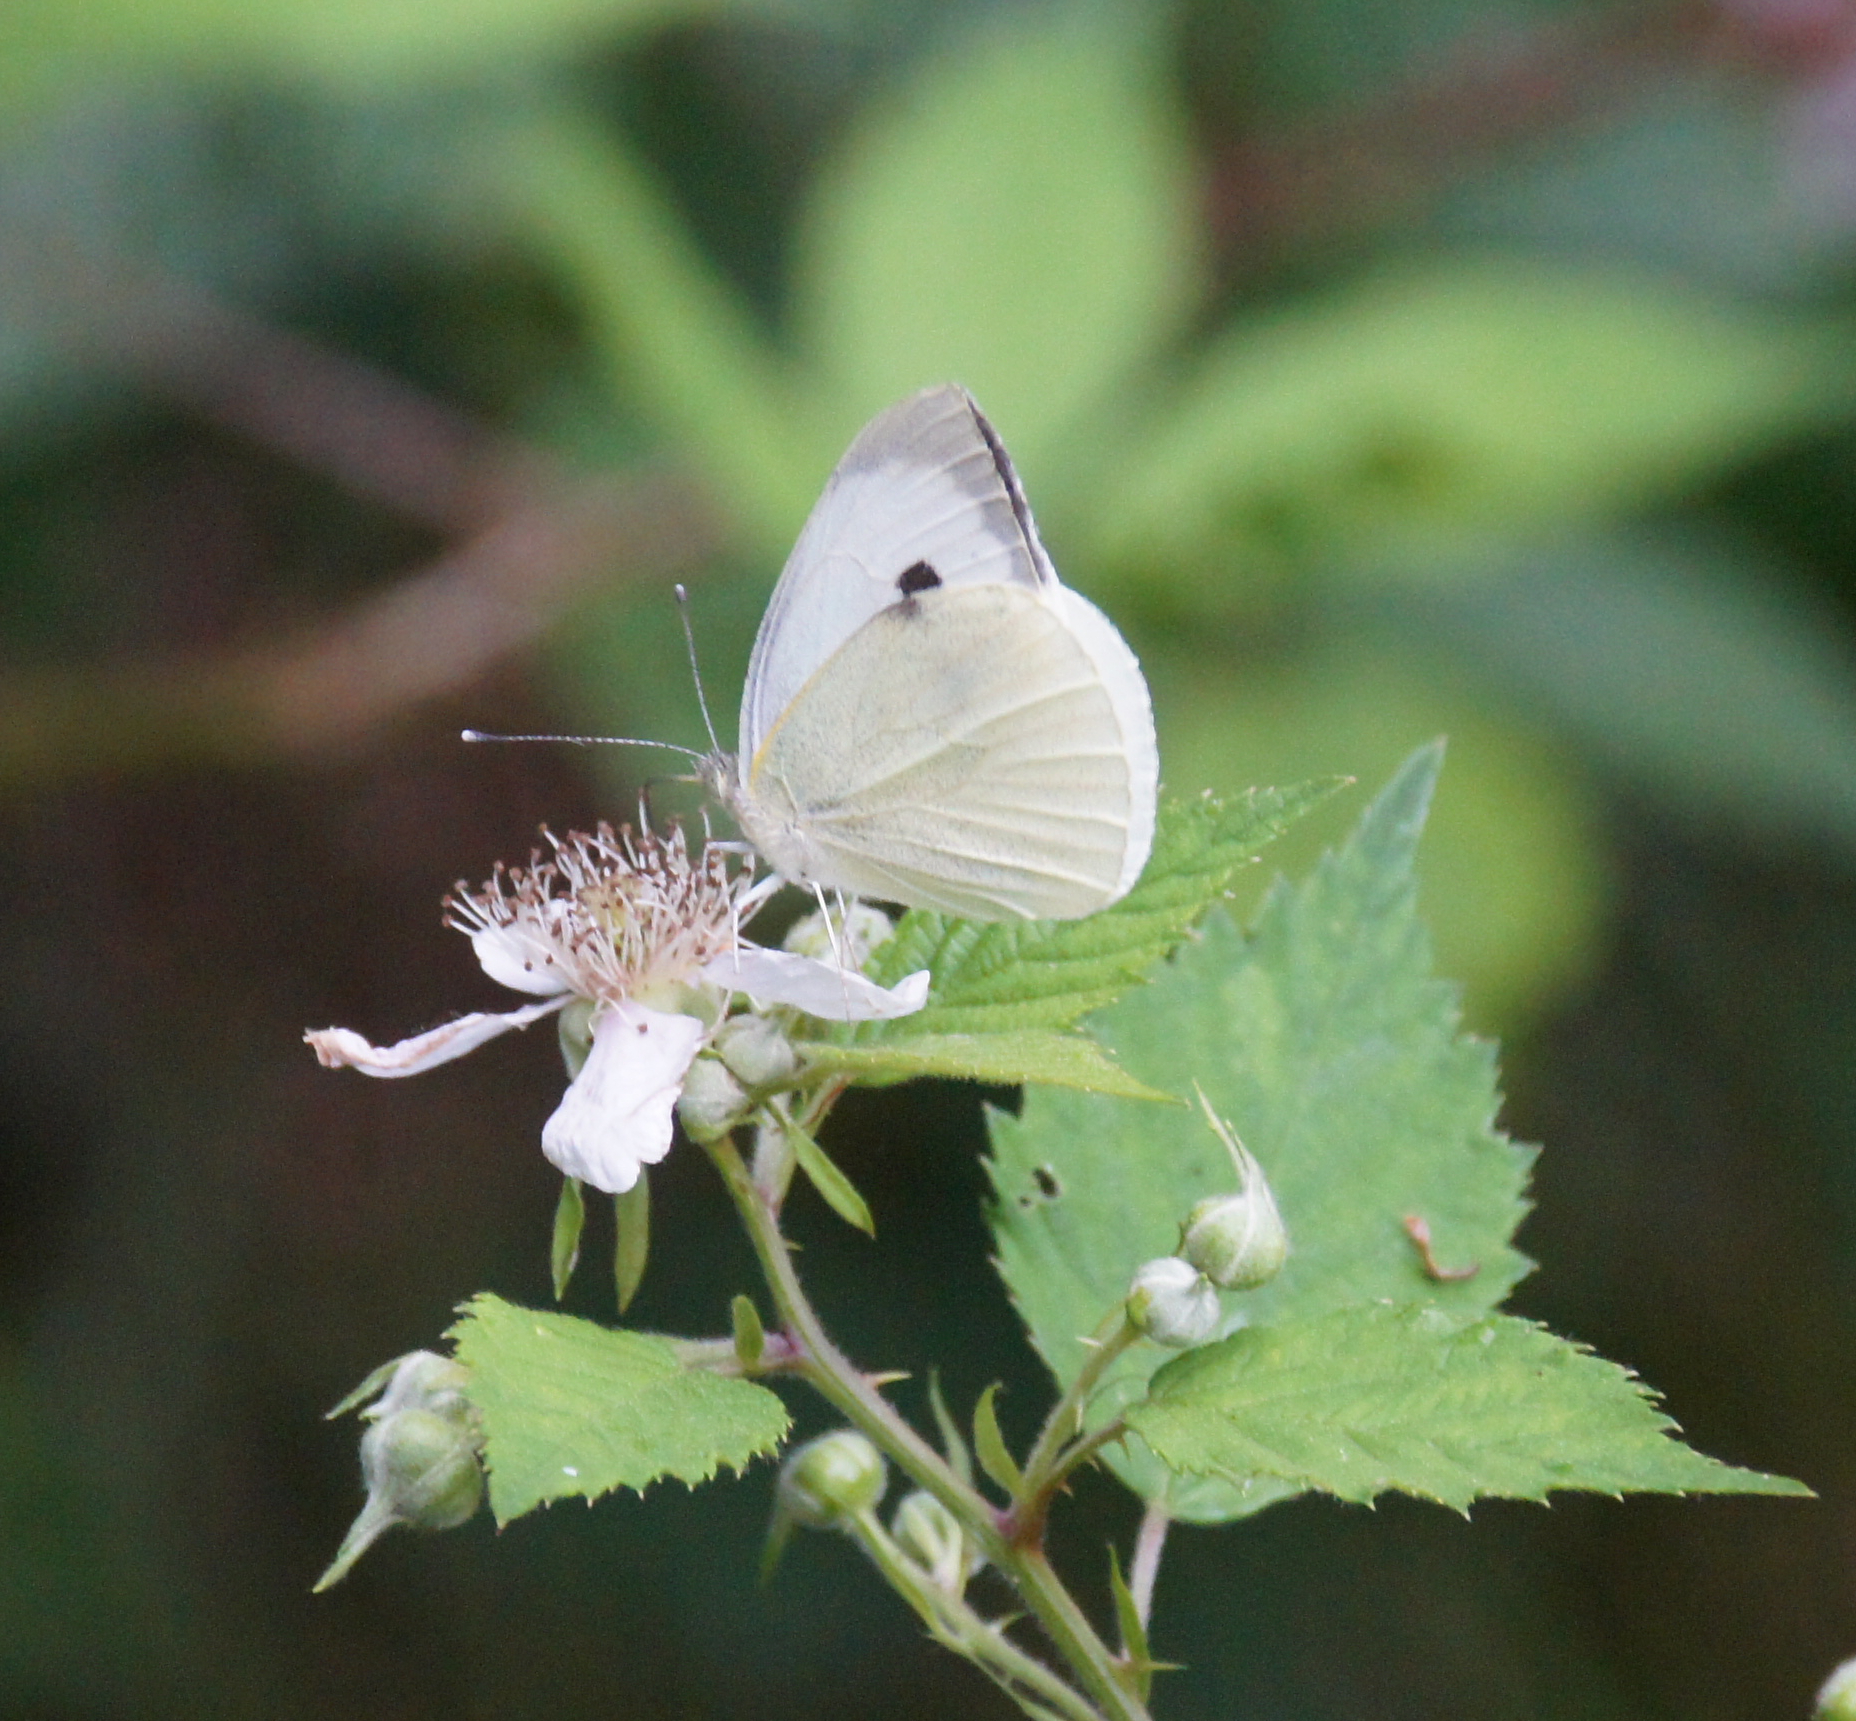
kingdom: Animalia
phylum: Arthropoda
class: Insecta
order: Lepidoptera
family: Pieridae
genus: Pieris
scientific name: Pieris brassicae
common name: Large white
